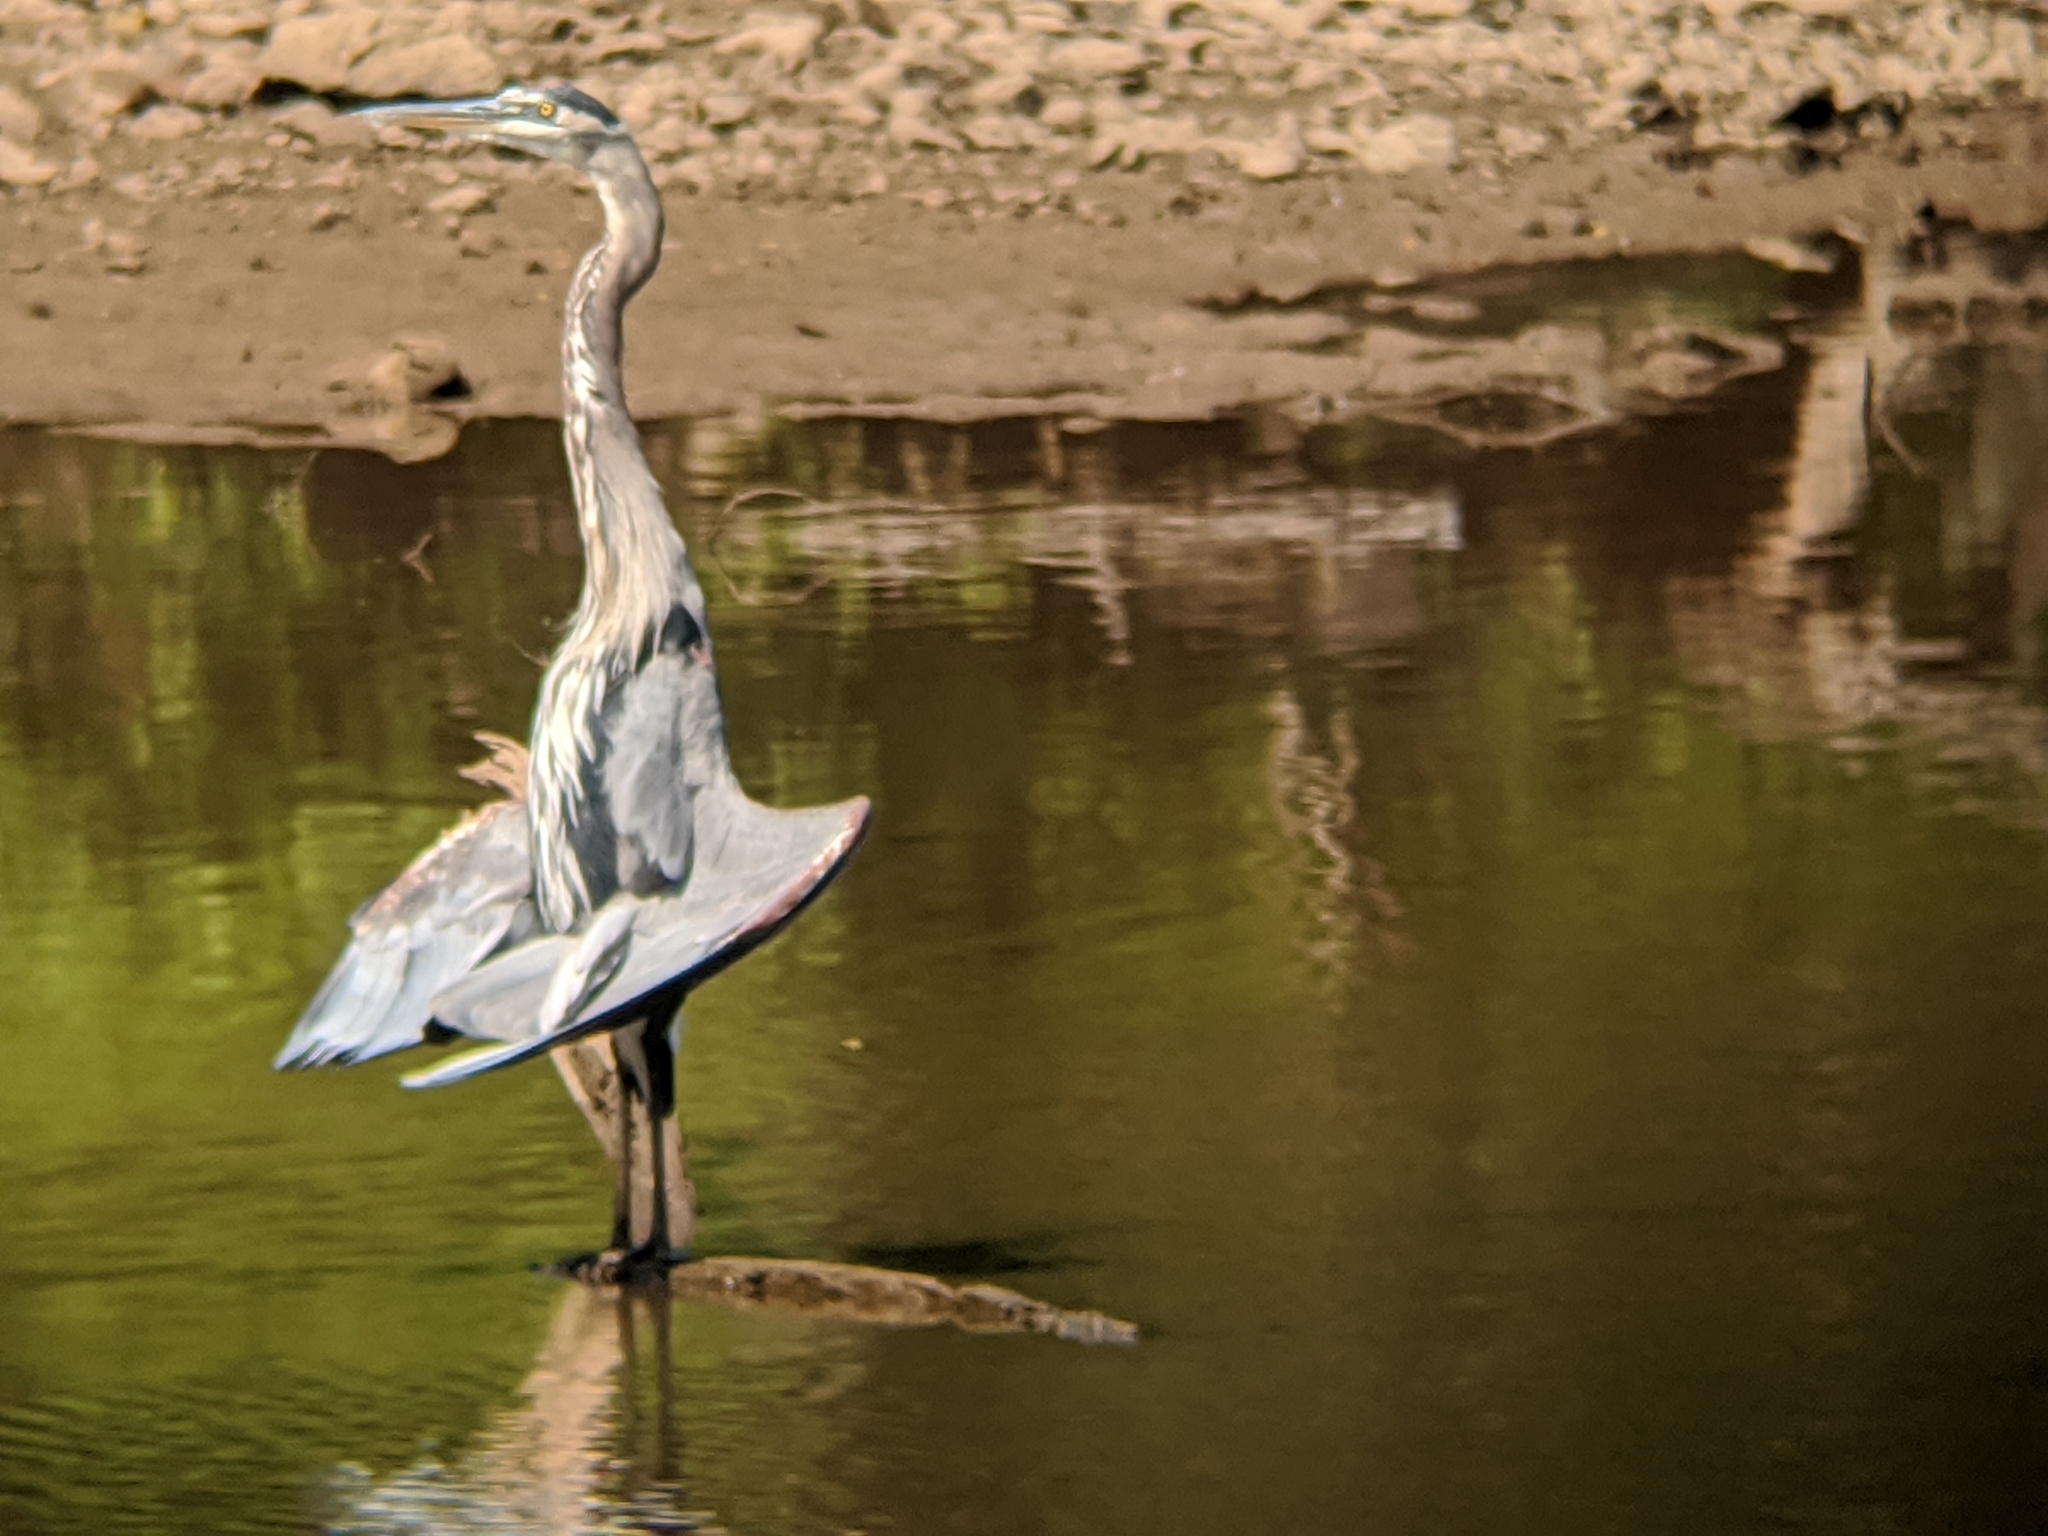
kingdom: Animalia
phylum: Chordata
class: Aves
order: Pelecaniformes
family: Ardeidae
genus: Ardea
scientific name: Ardea herodias
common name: Great blue heron
